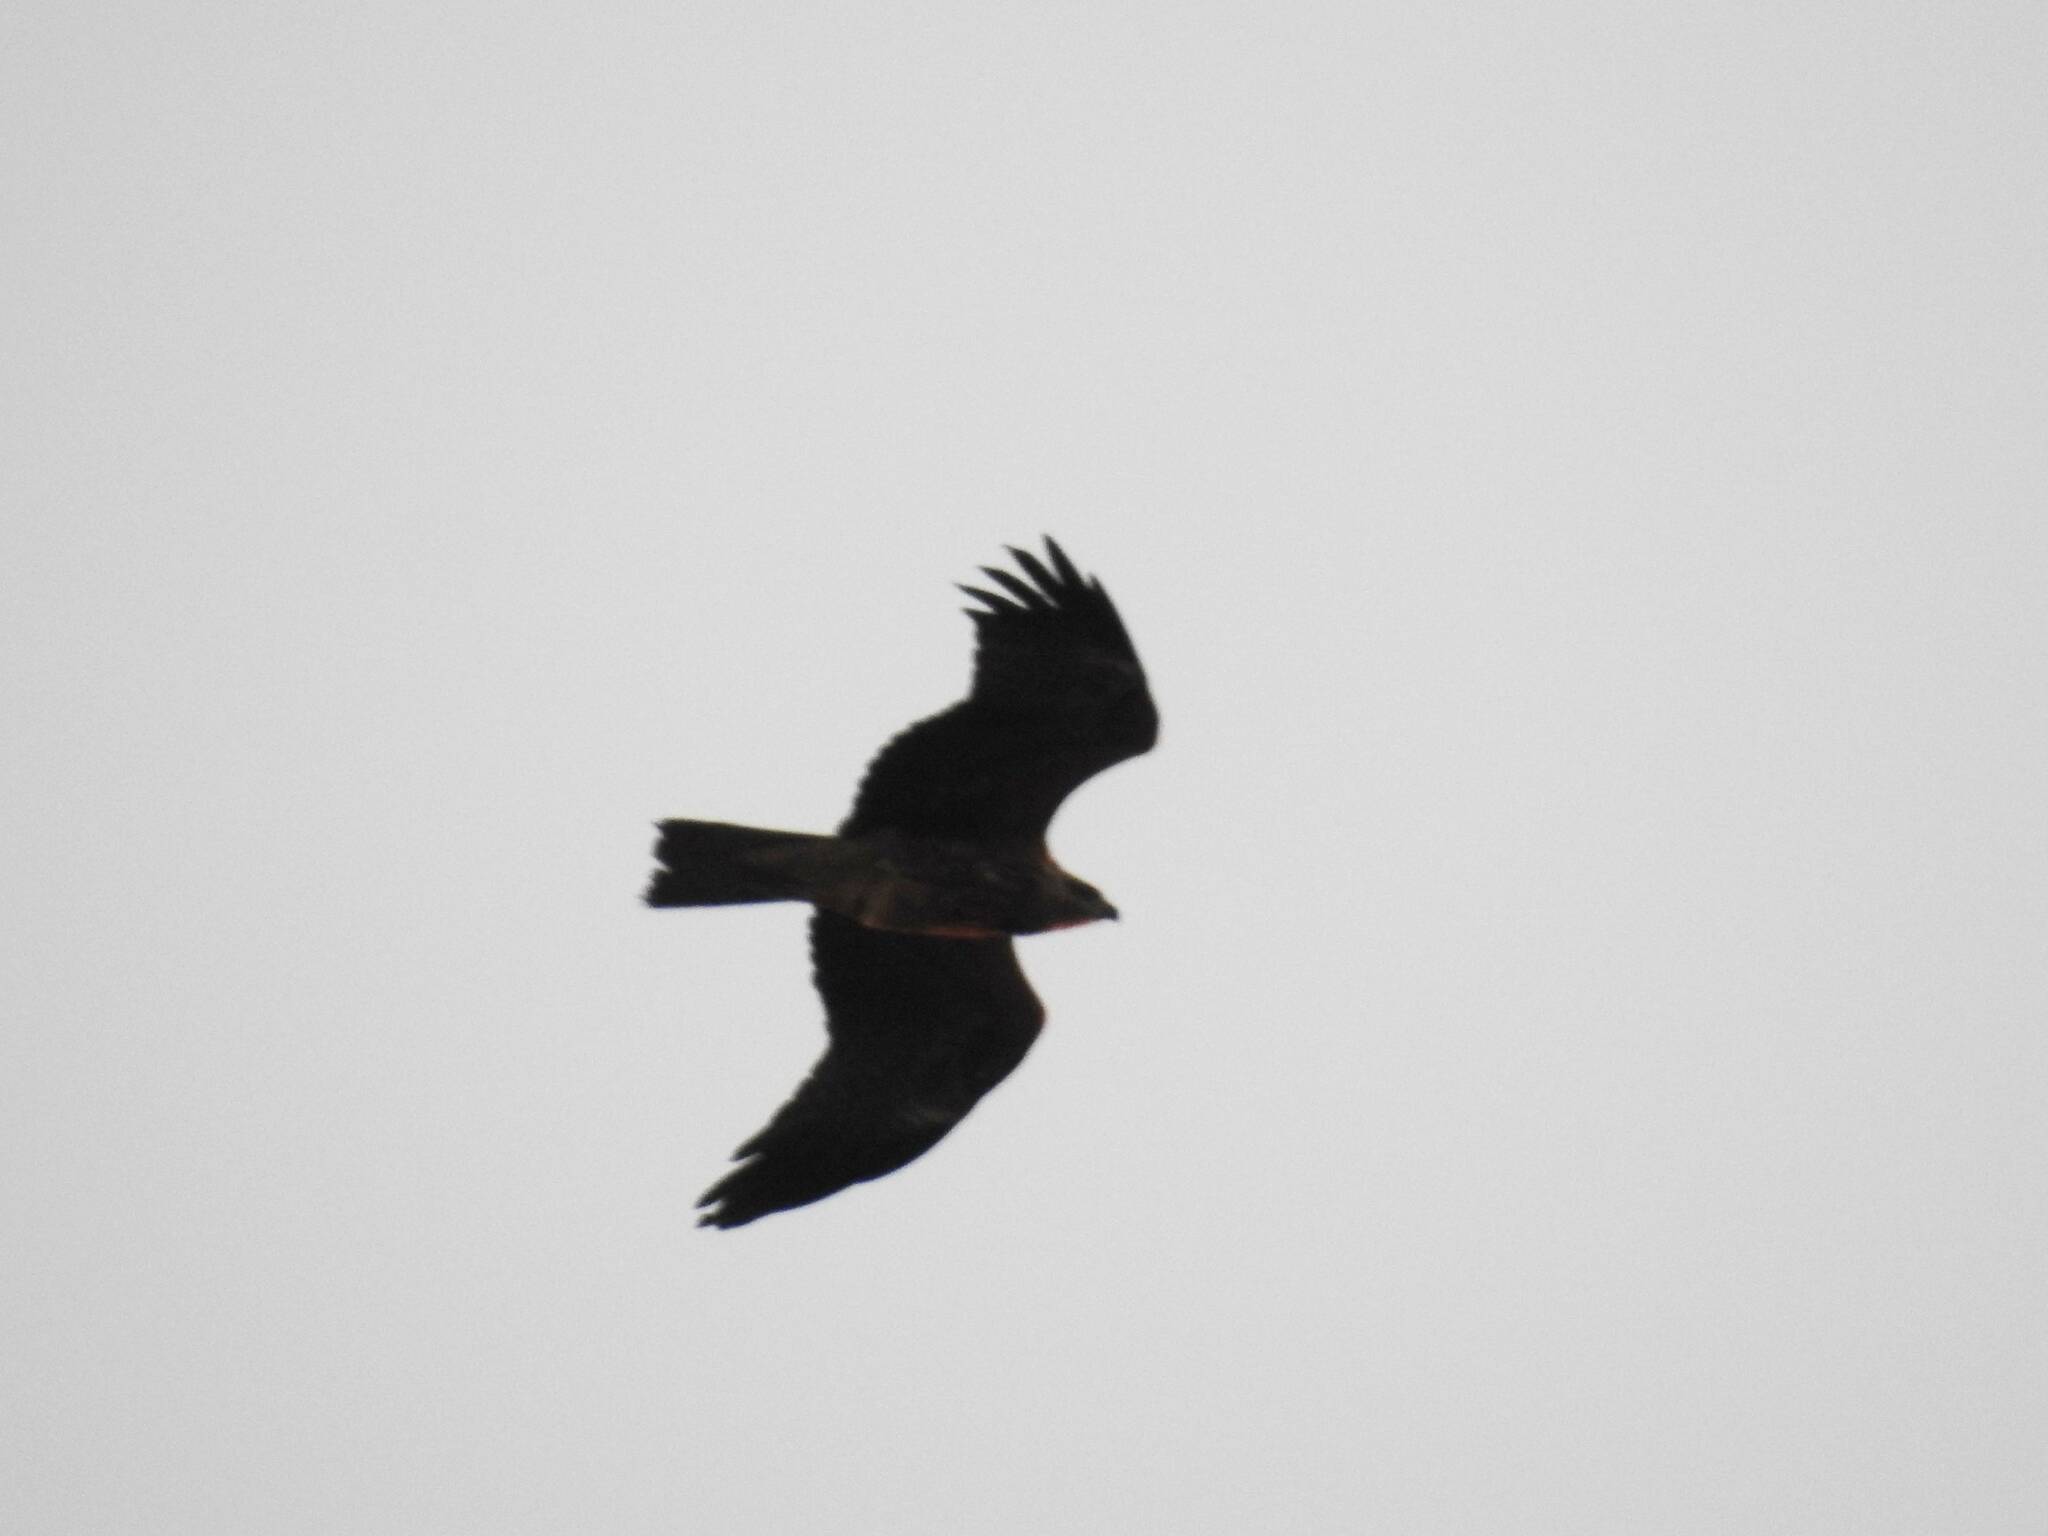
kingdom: Animalia
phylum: Chordata
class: Aves
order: Accipitriformes
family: Accipitridae
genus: Milvus
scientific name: Milvus migrans
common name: Black kite
